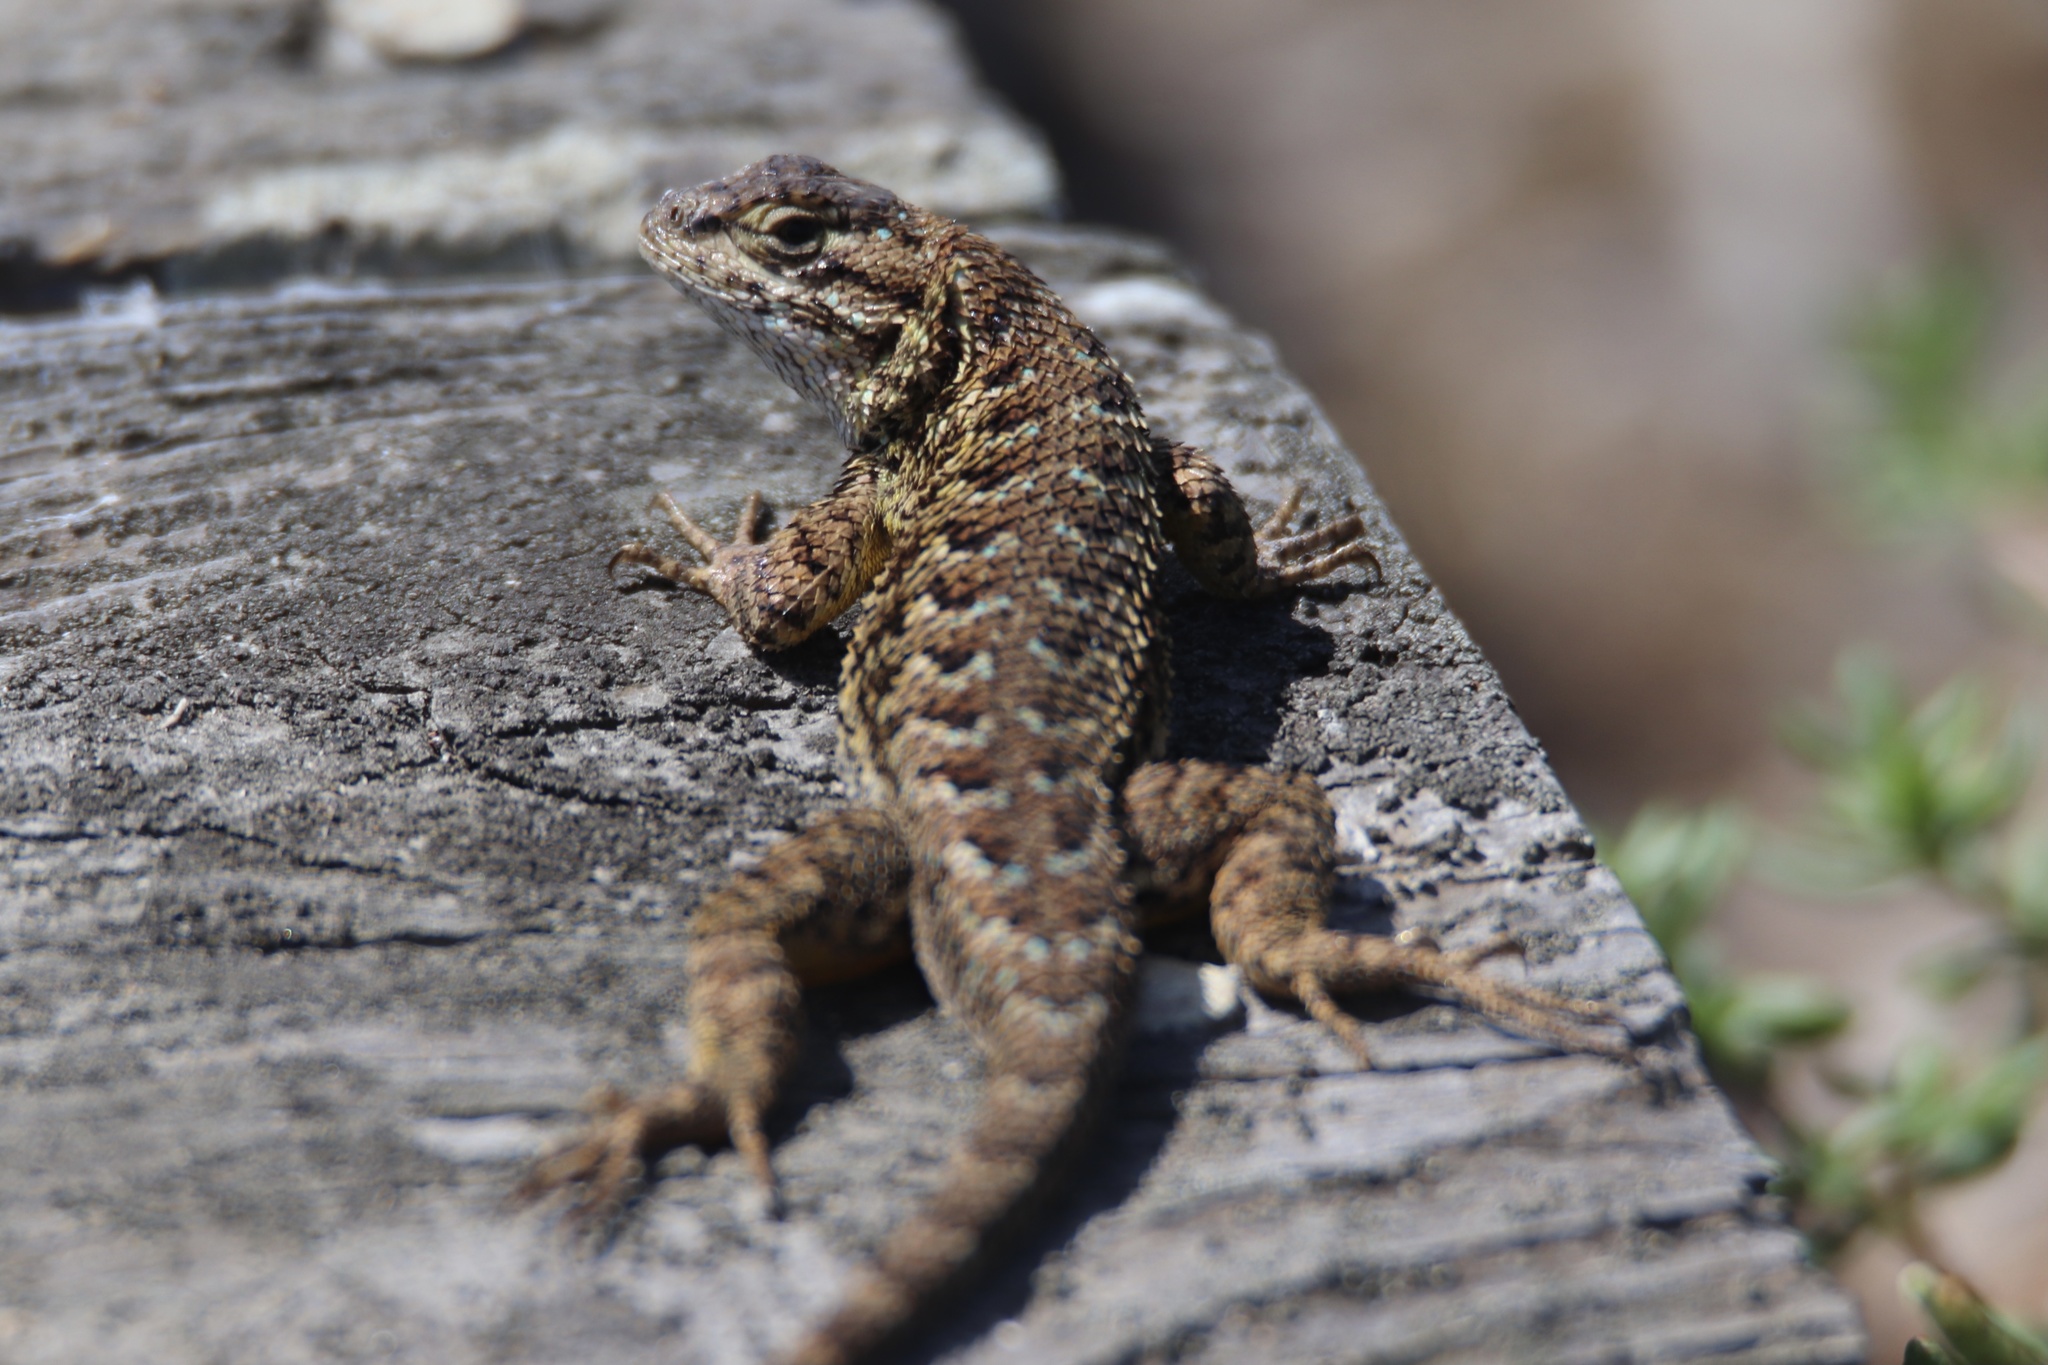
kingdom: Animalia
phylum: Chordata
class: Squamata
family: Phrynosomatidae
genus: Sceloporus
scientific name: Sceloporus occidentalis
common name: Western fence lizard
